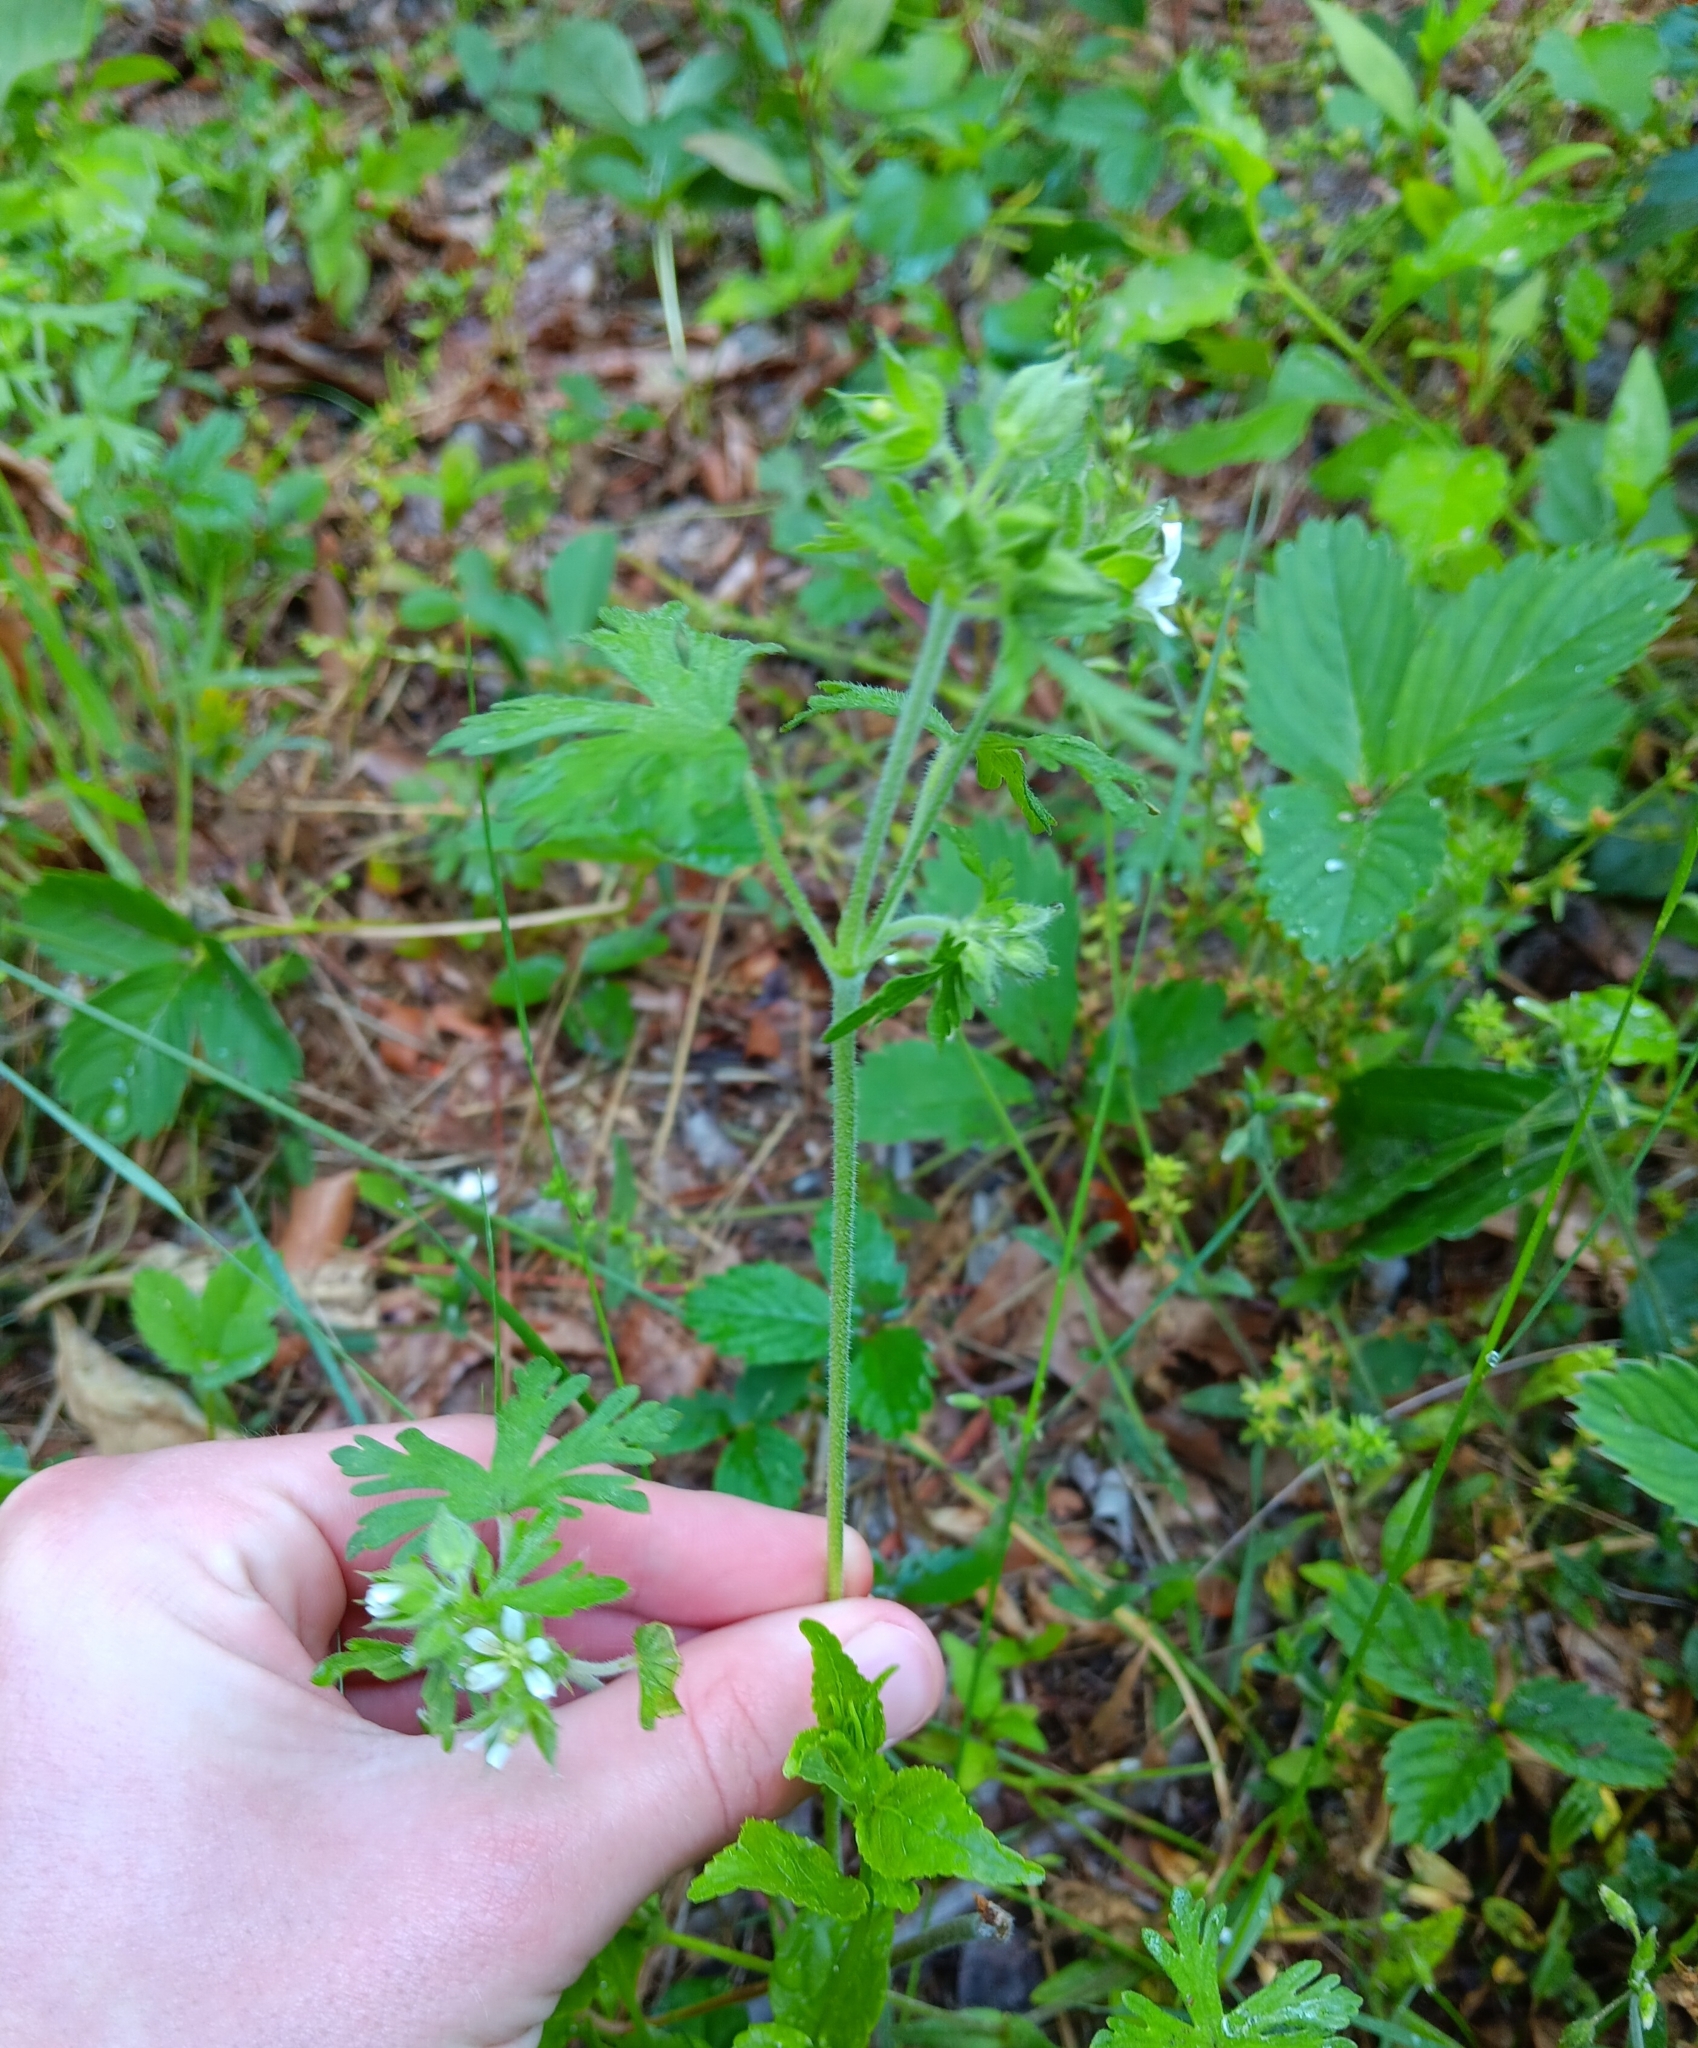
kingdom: Plantae
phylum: Tracheophyta
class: Magnoliopsida
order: Geraniales
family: Geraniaceae
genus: Geranium
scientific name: Geranium carolinianum
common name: Carolina crane's-bill
